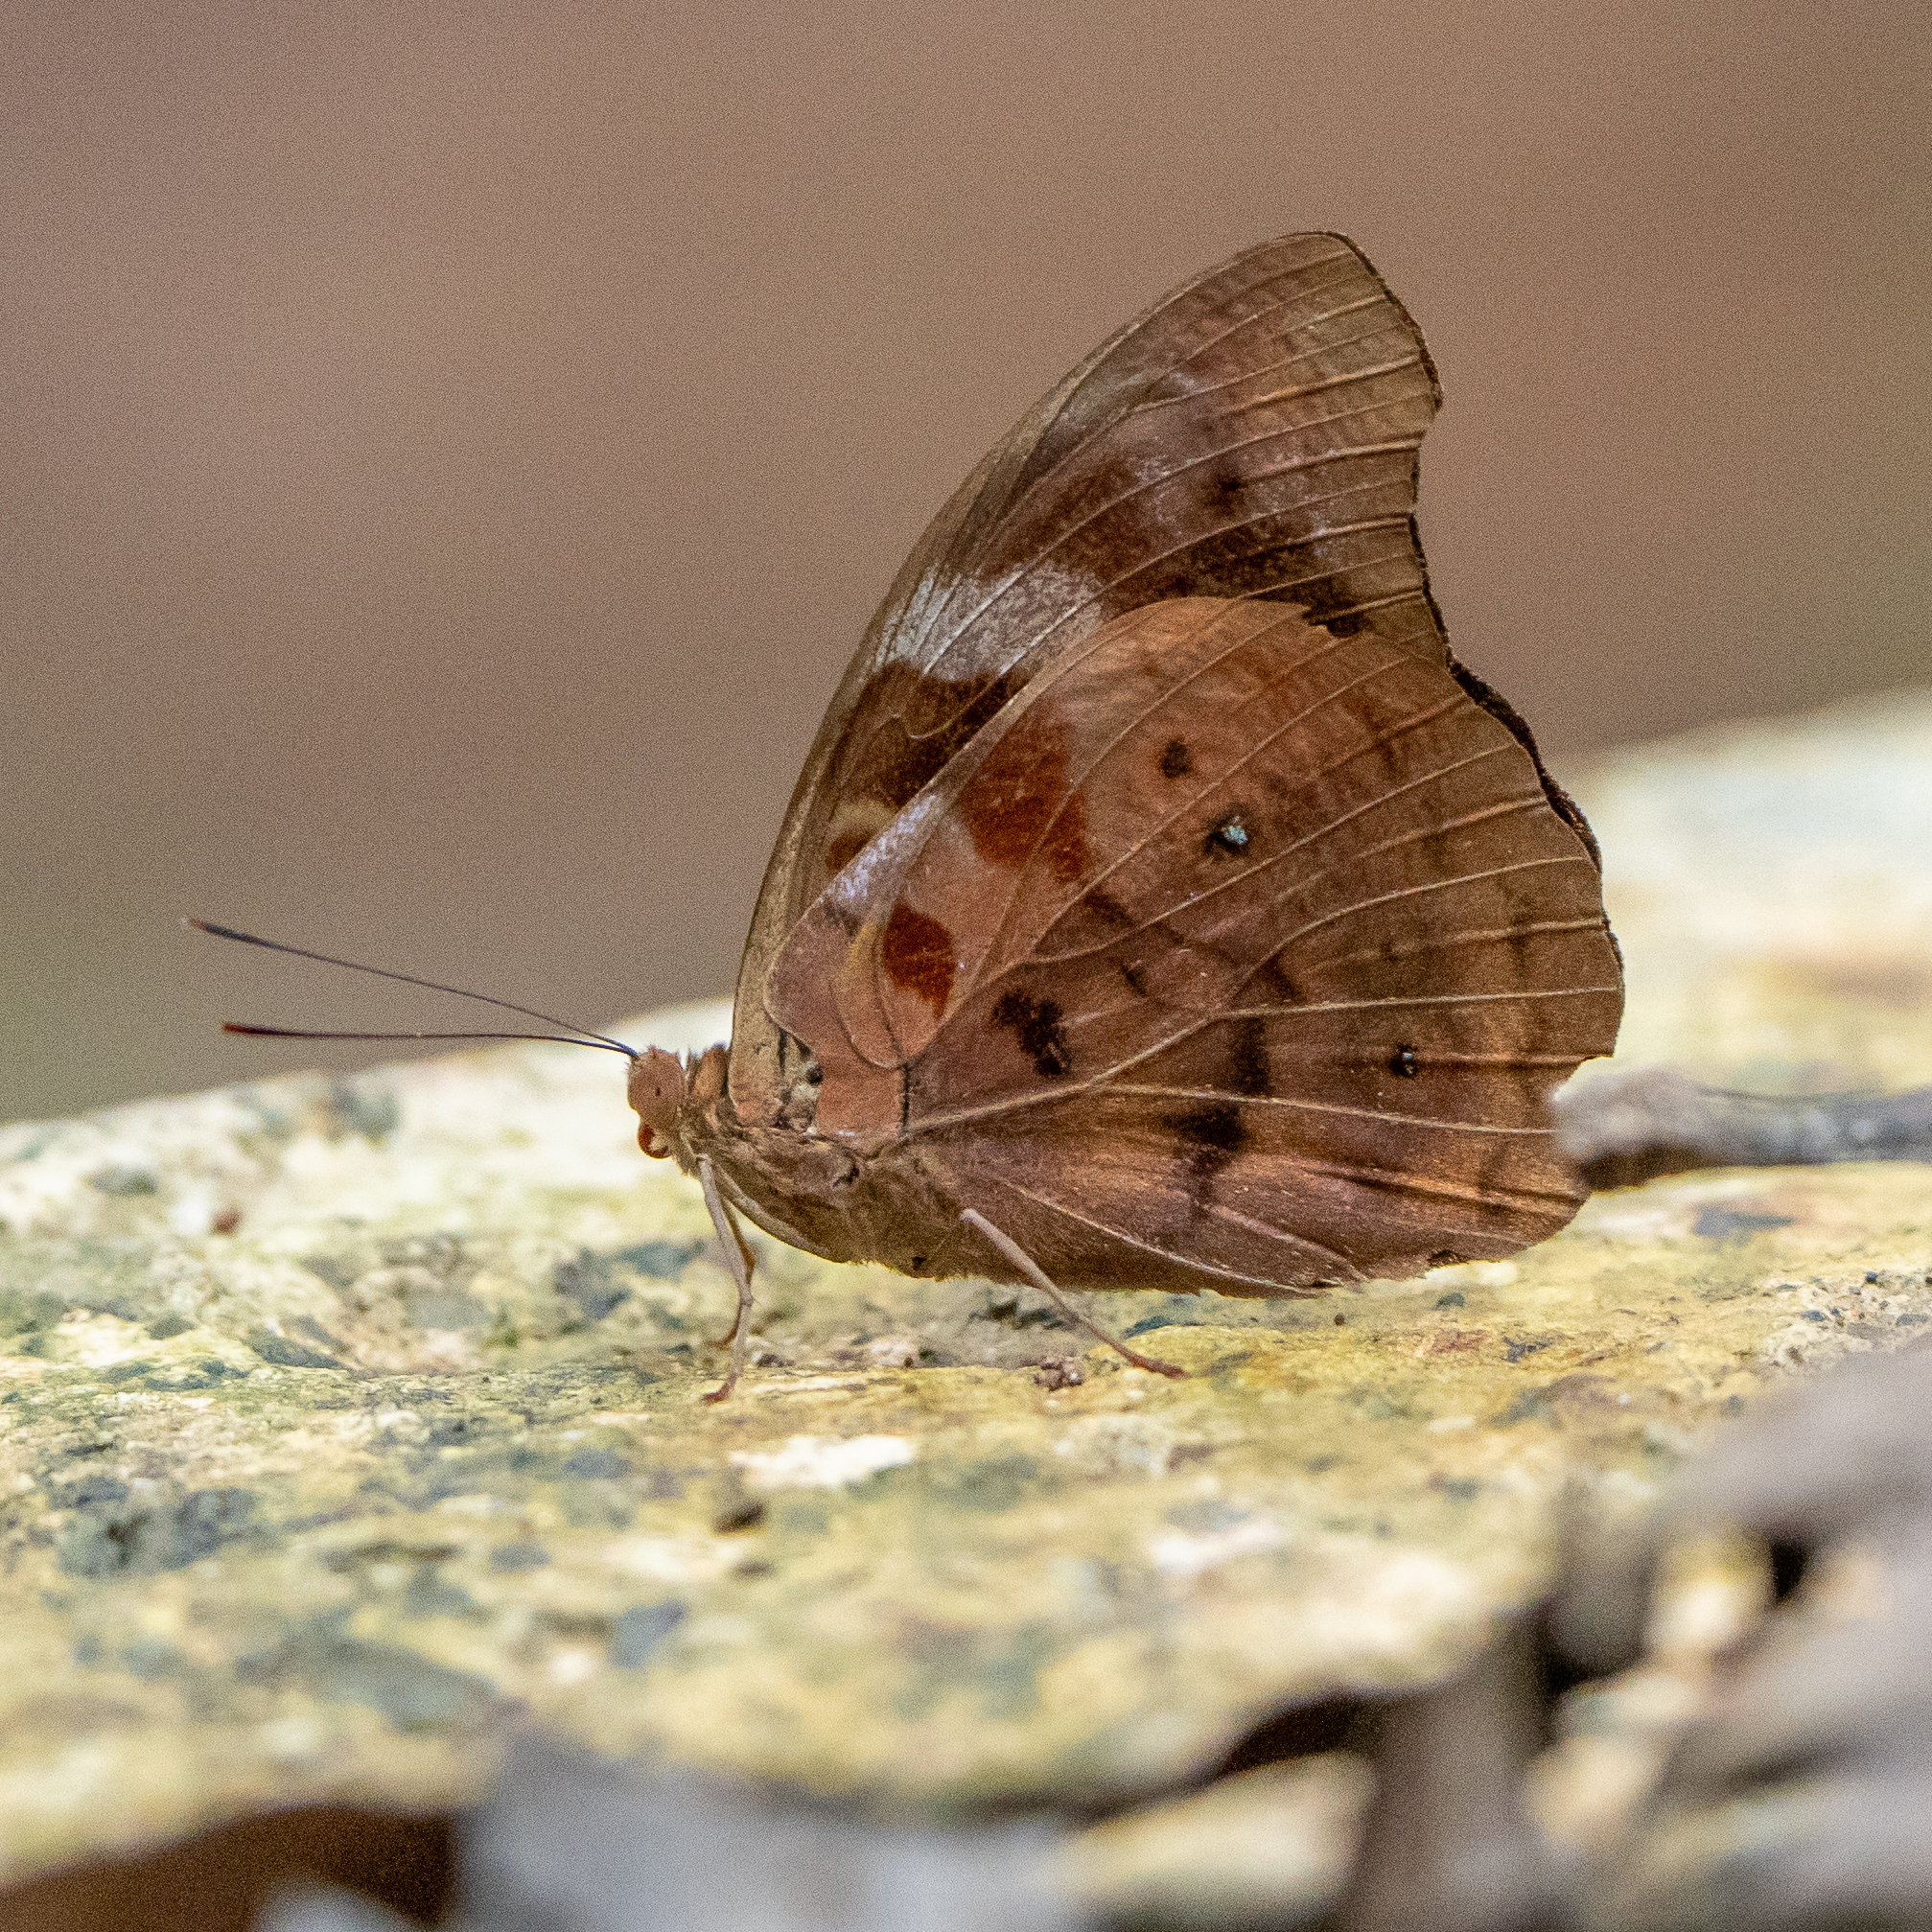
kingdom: Animalia
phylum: Arthropoda
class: Insecta
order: Lepidoptera
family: Nymphalidae
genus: Eunica
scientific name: Eunica mygdonia
